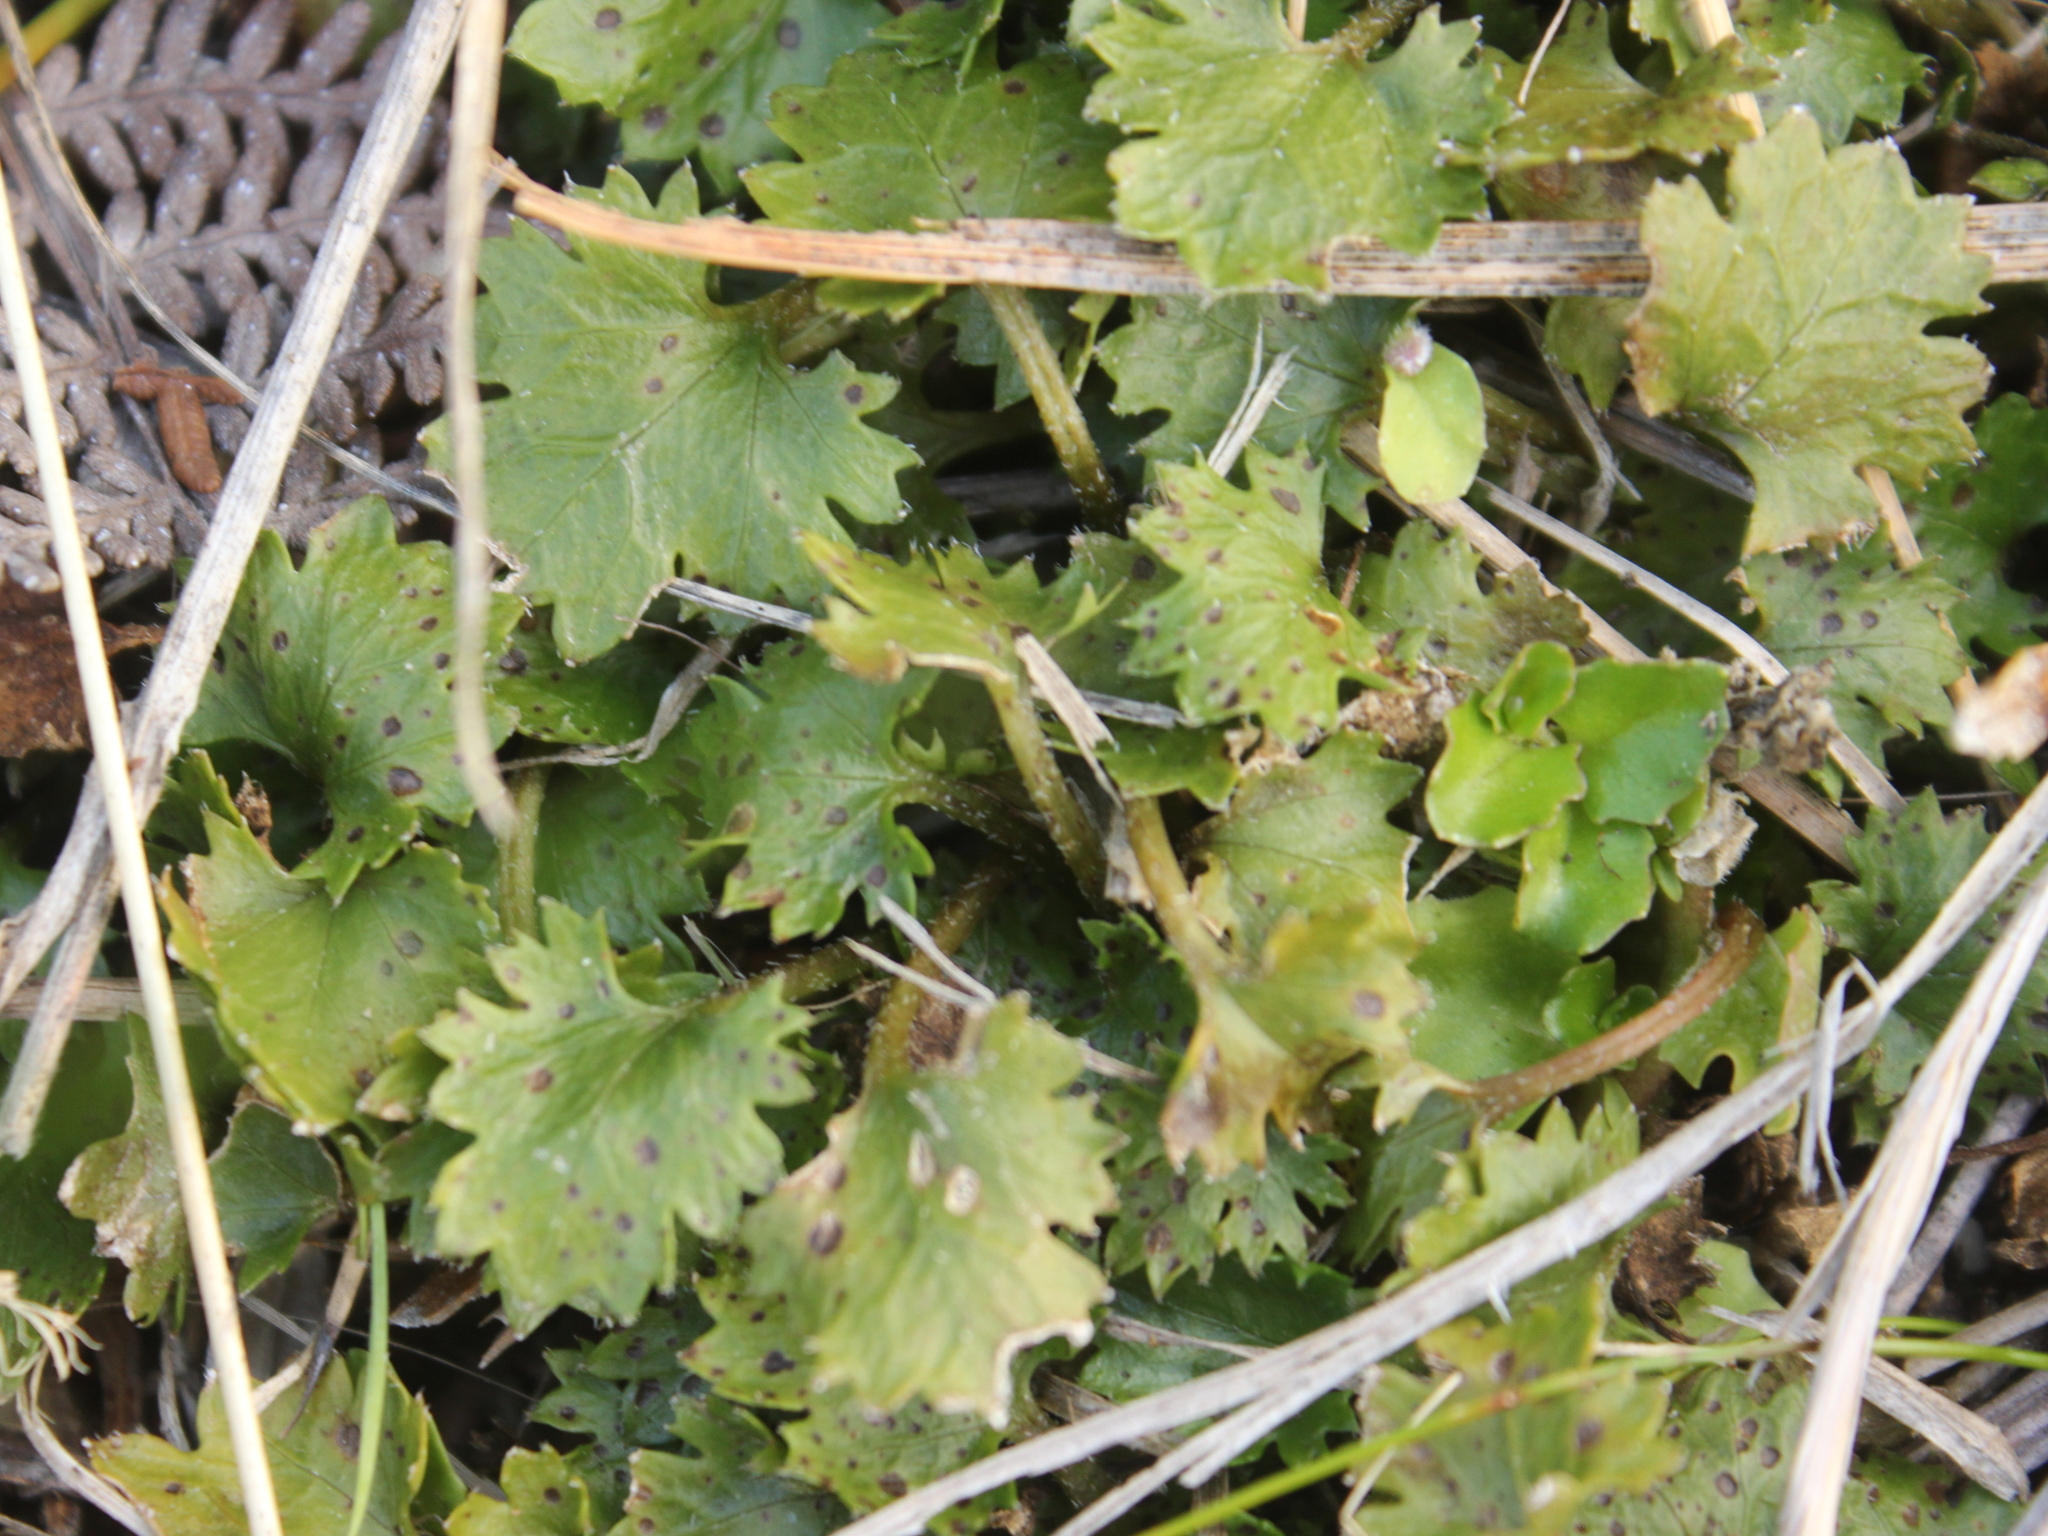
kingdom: Plantae
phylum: Tracheophyta
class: Magnoliopsida
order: Gunnerales
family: Gunneraceae
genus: Gunnera
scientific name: Gunnera monoica
